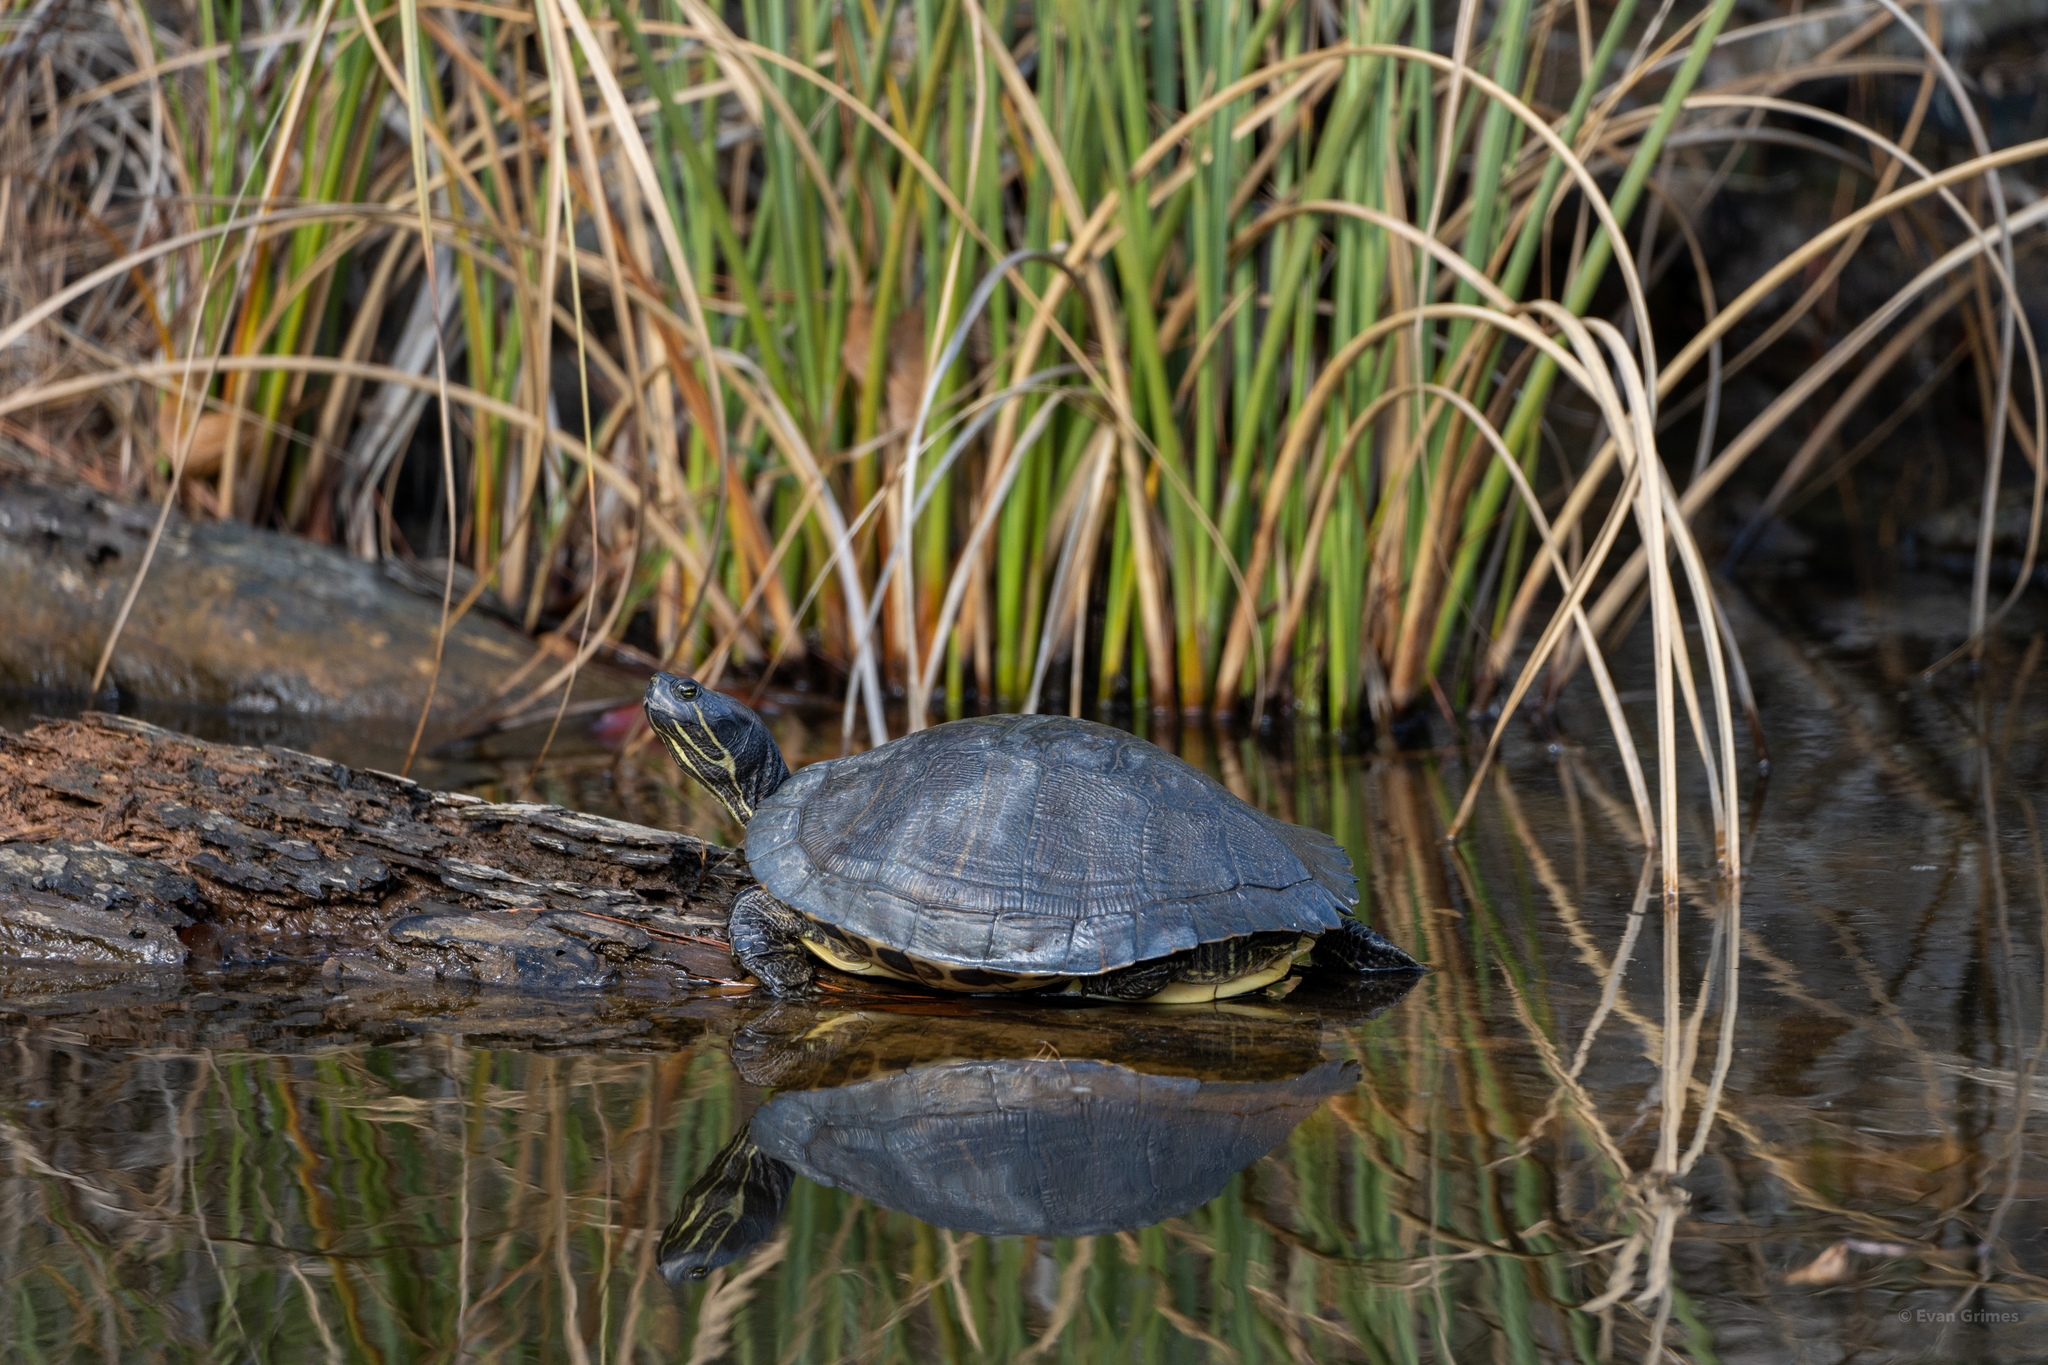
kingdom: Animalia
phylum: Chordata
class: Testudines
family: Emydidae
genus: Trachemys
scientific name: Trachemys scripta
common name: Slider
